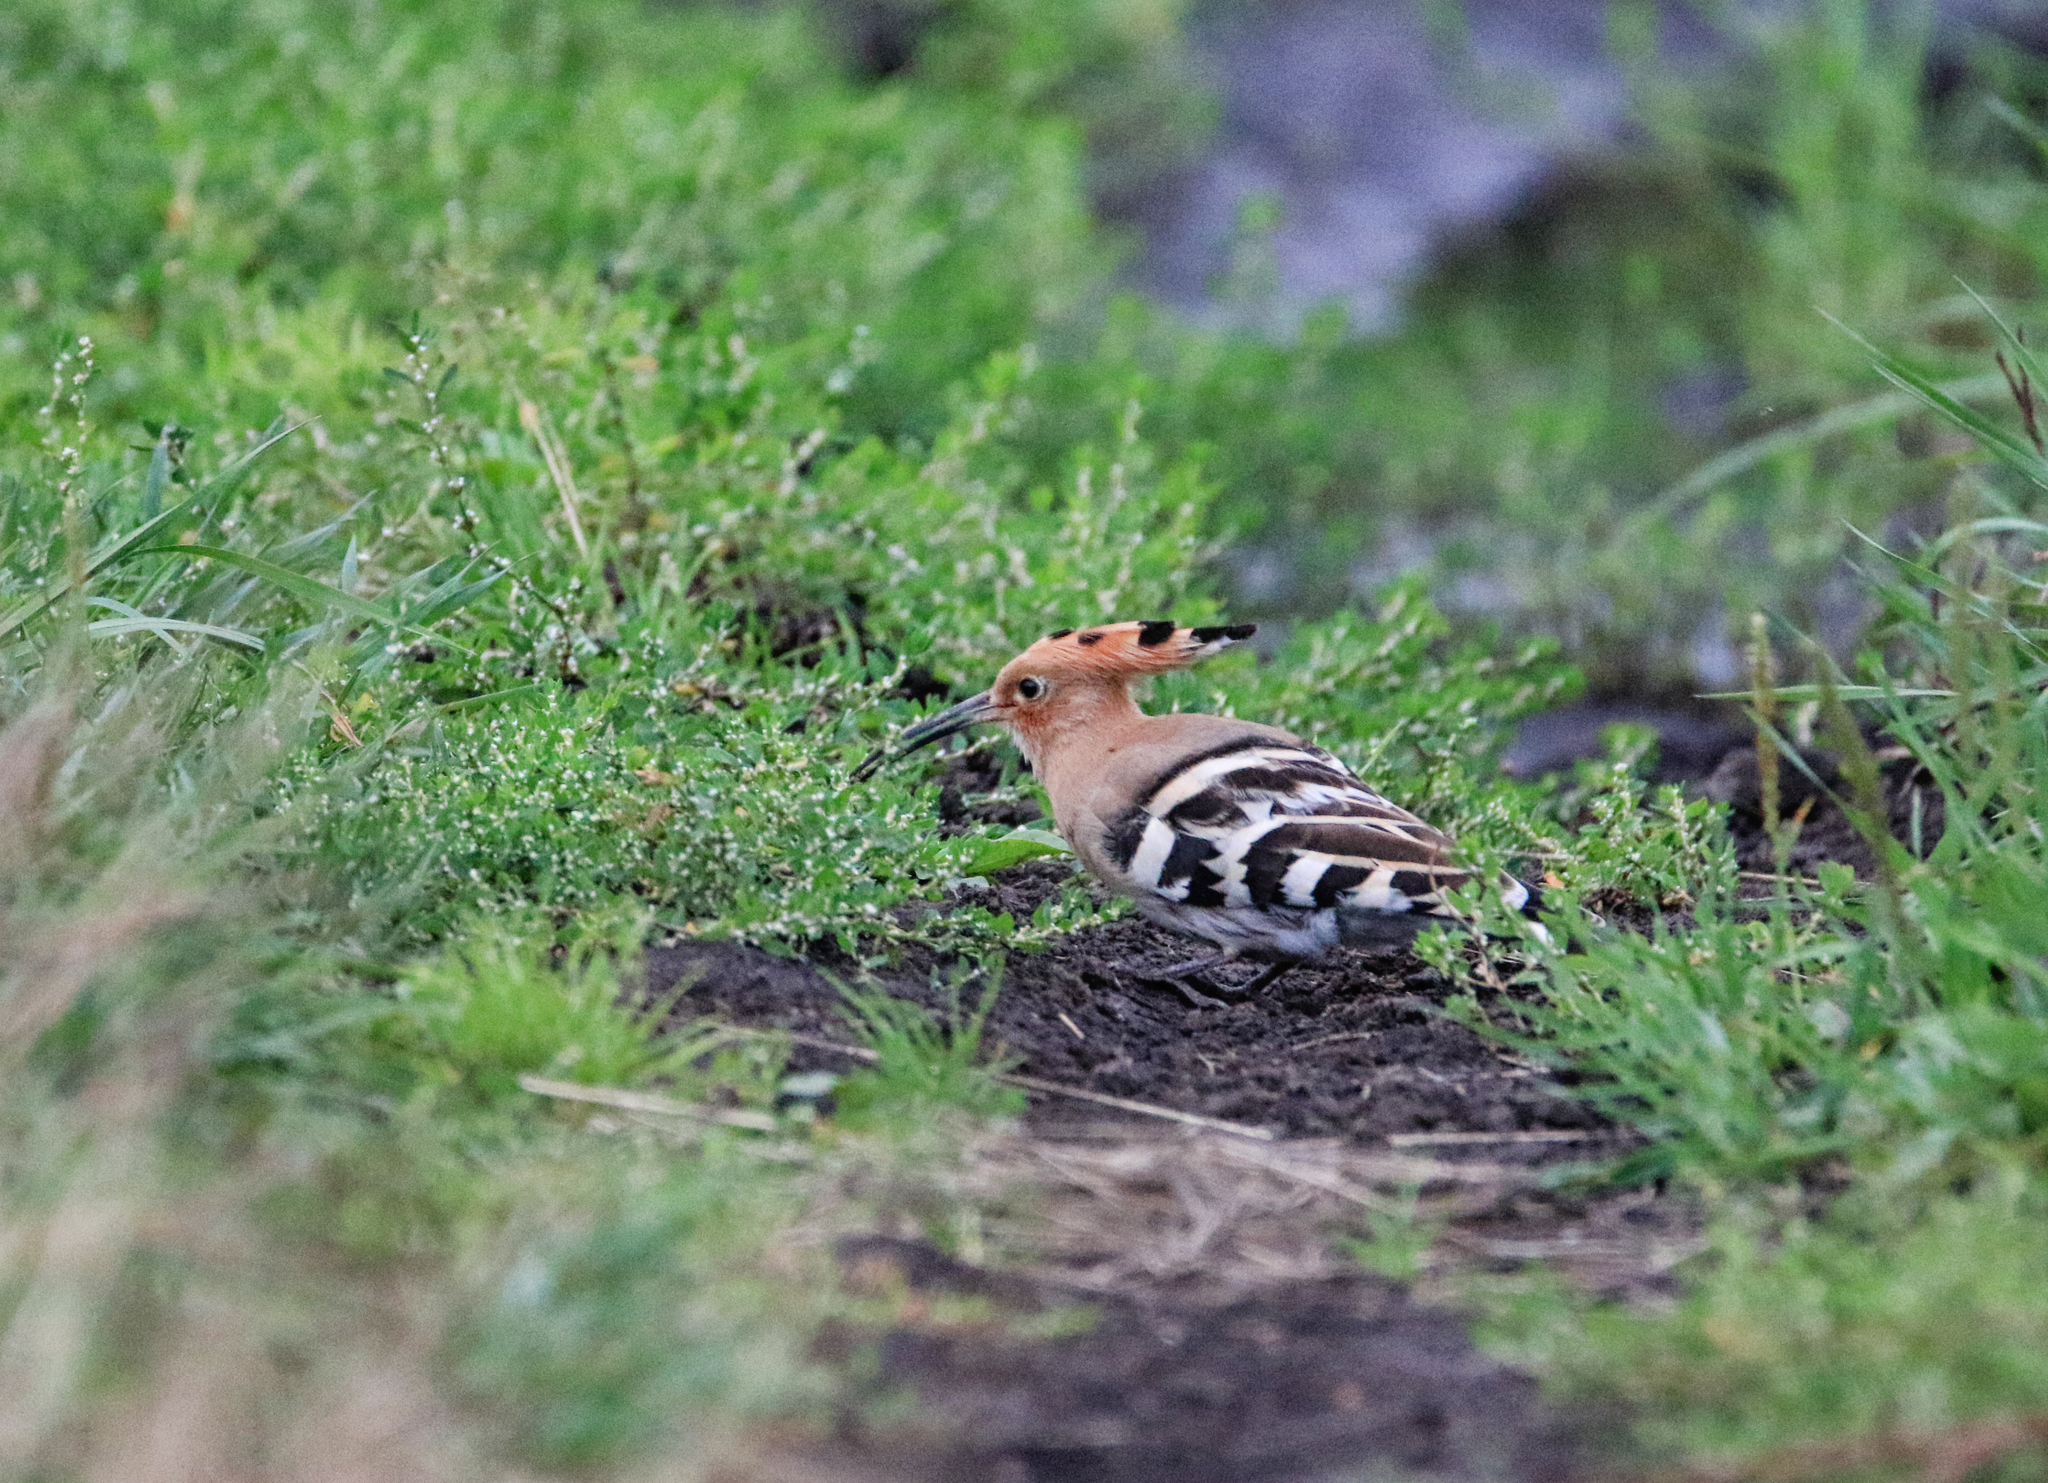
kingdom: Animalia
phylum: Chordata
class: Aves
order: Bucerotiformes
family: Upupidae
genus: Upupa
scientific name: Upupa epops
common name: Eurasian hoopoe
